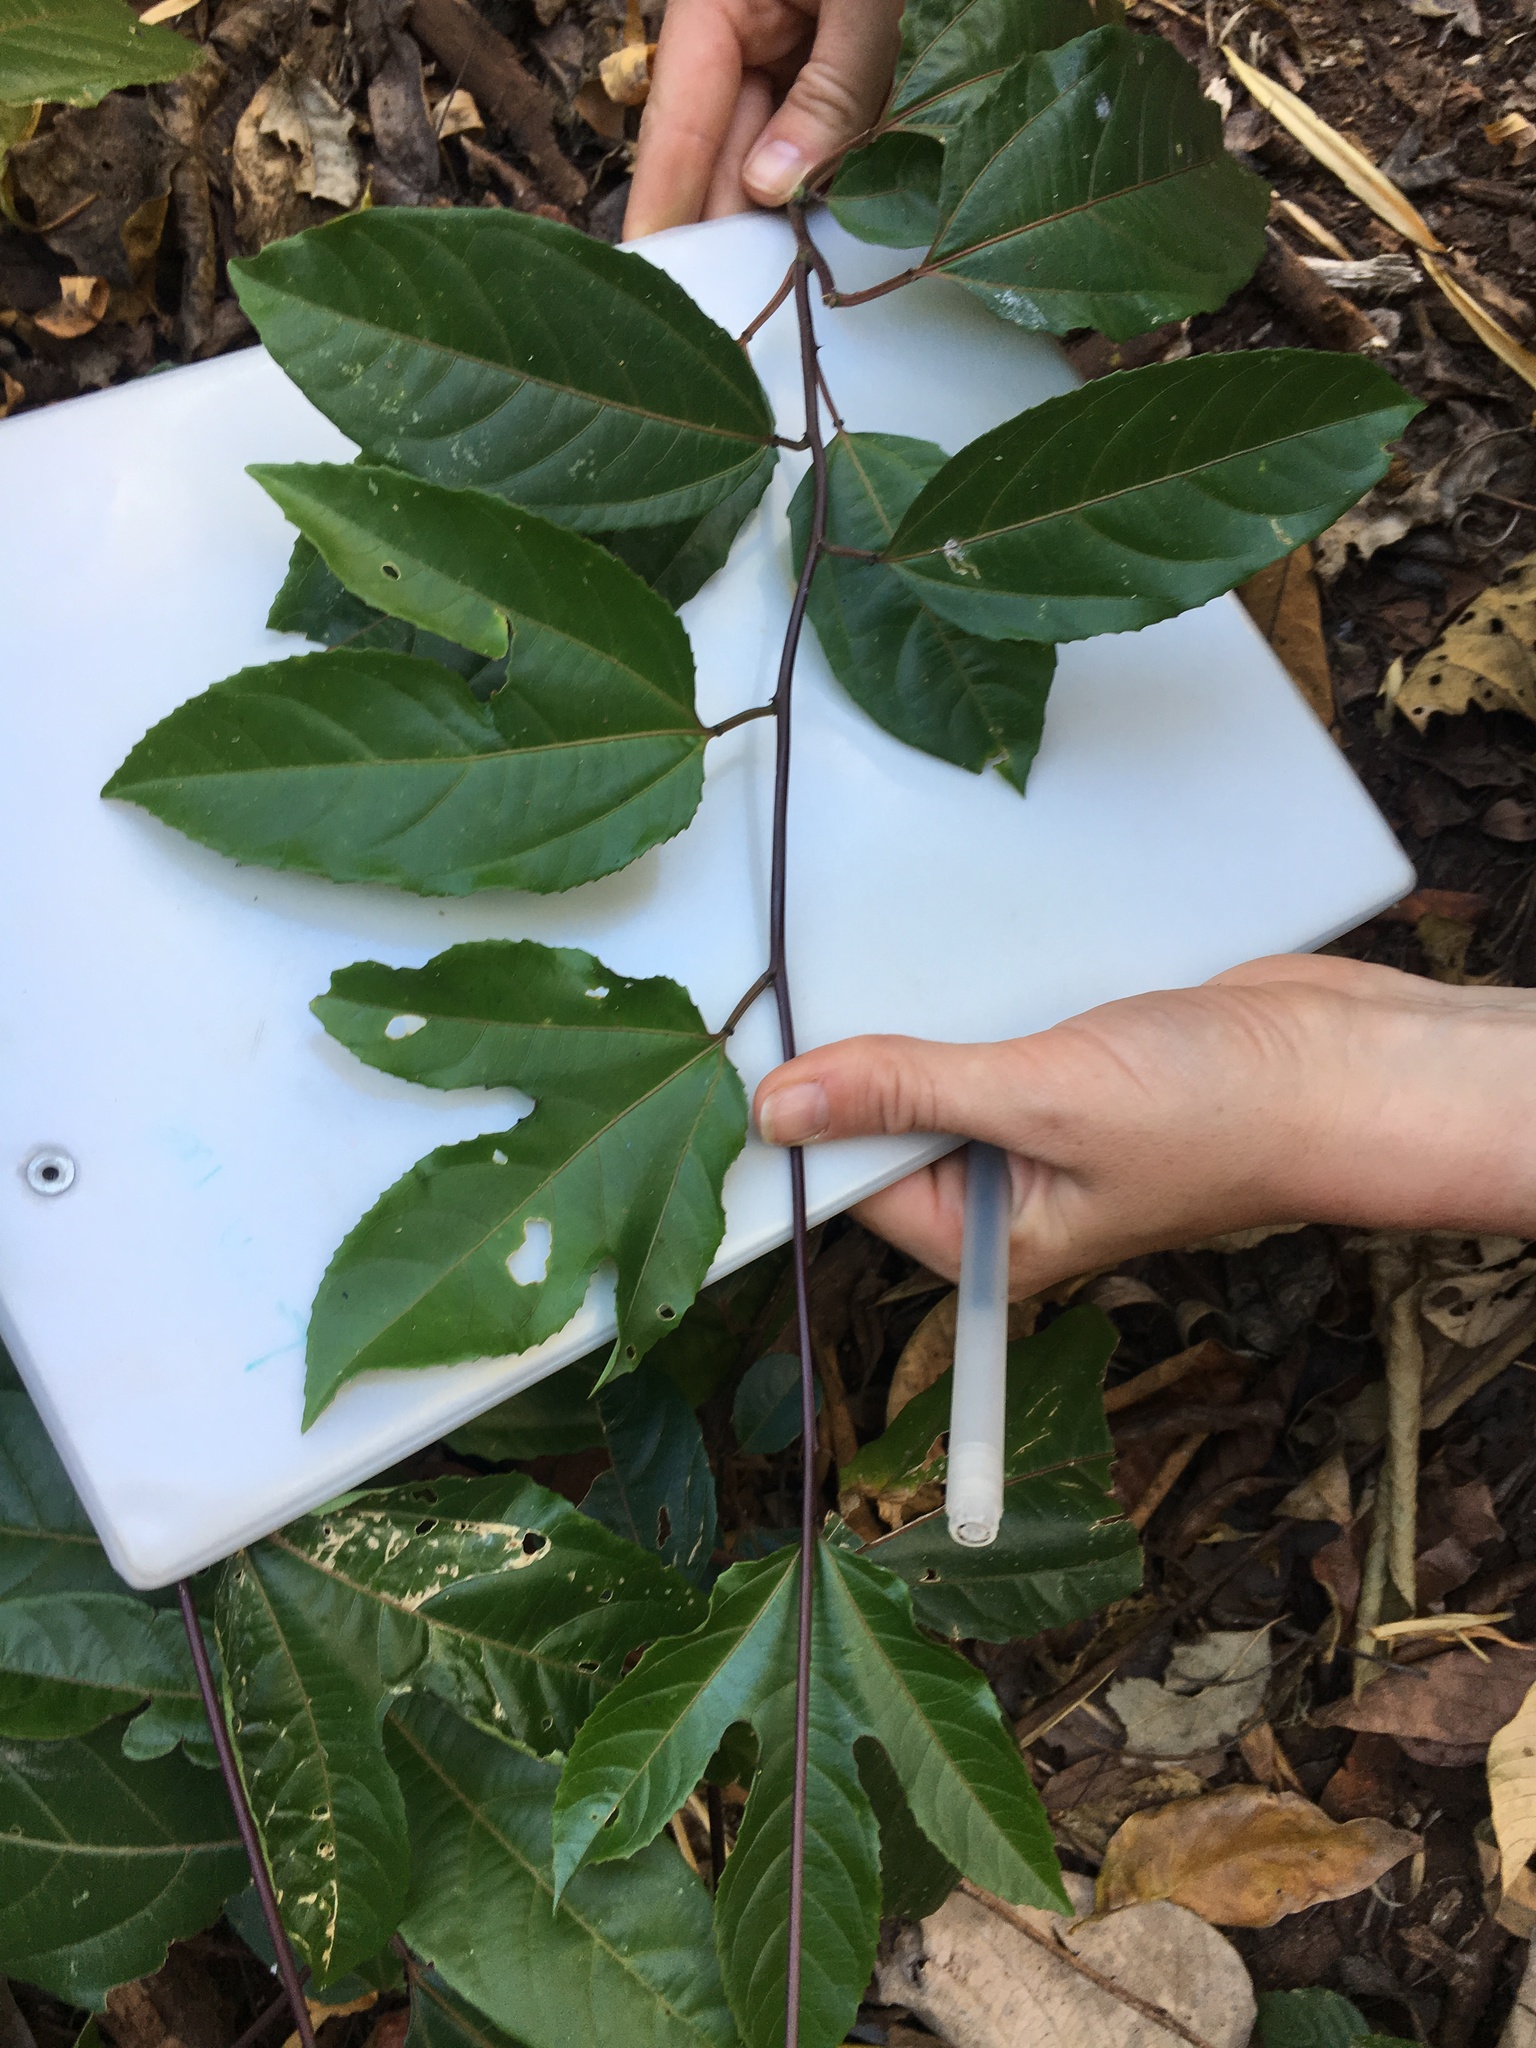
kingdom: Plantae
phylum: Tracheophyta
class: Magnoliopsida
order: Malpighiales
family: Passifloraceae
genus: Passiflora
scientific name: Passiflora edulis
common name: Purple granadilla
